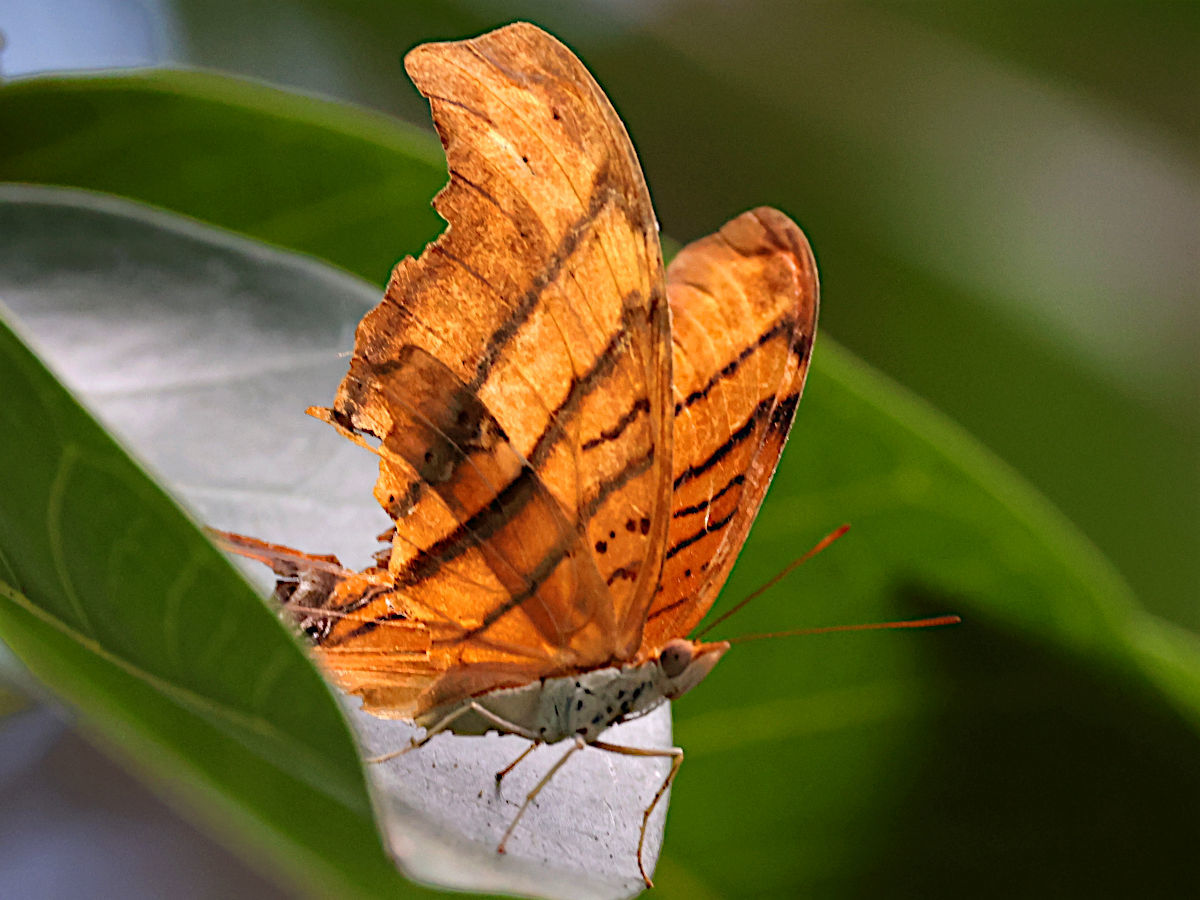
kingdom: Animalia
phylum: Arthropoda
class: Insecta
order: Lepidoptera
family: Nymphalidae
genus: Marpesia
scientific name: Marpesia petreus
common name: Red dagger wing
